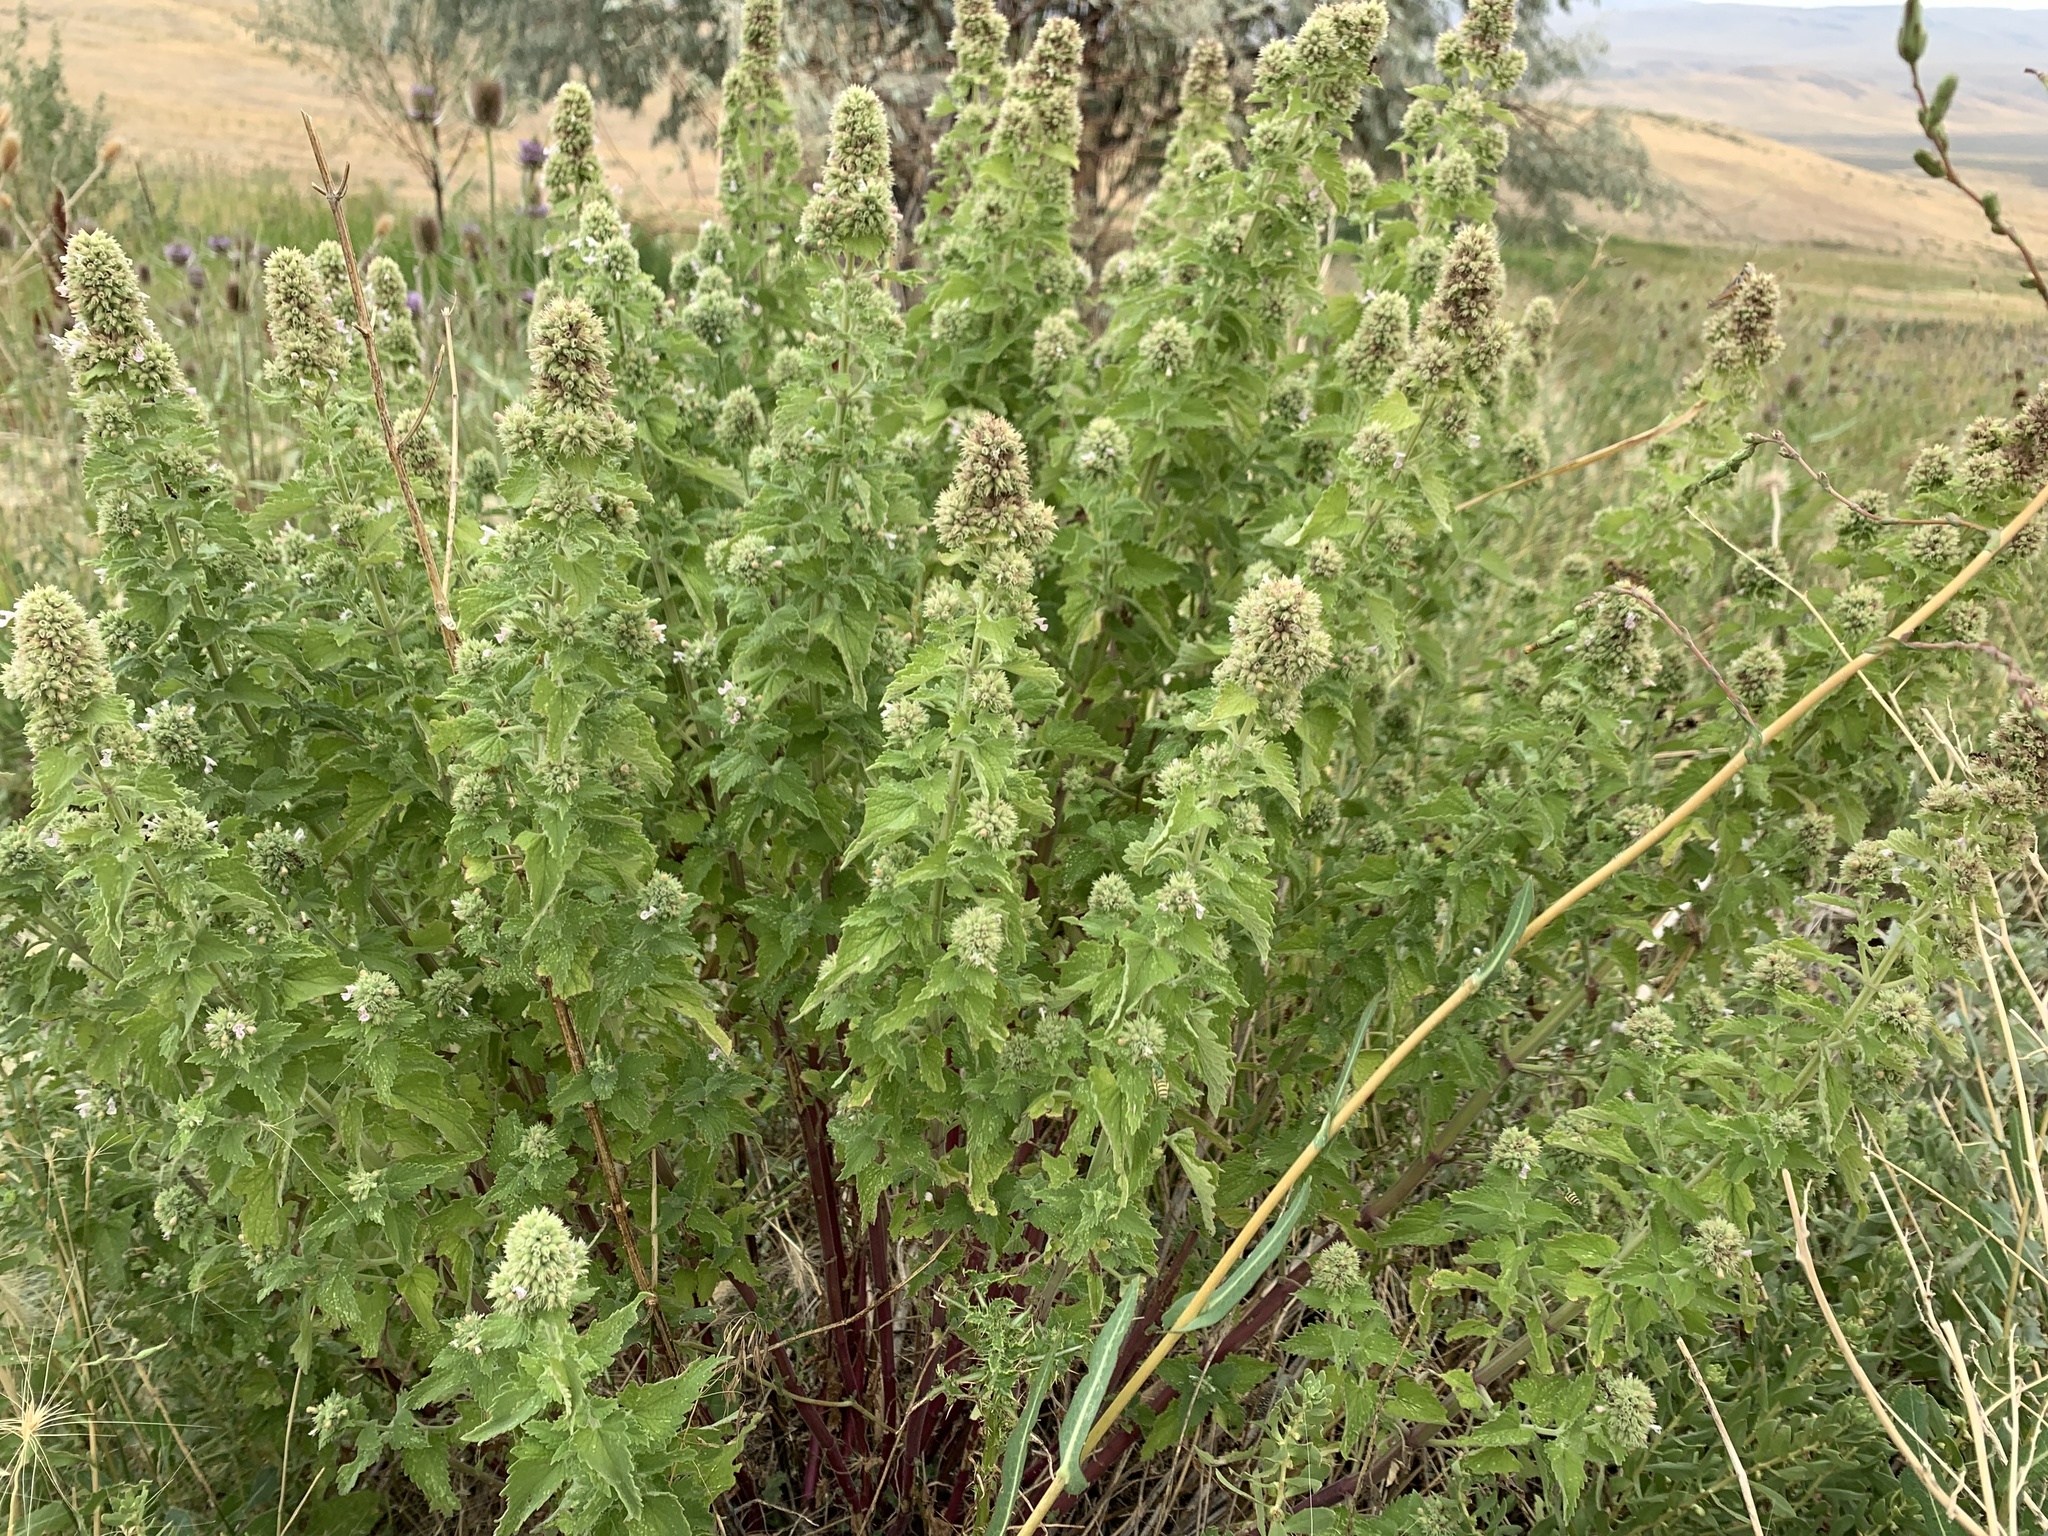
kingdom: Plantae
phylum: Tracheophyta
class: Magnoliopsida
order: Lamiales
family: Lamiaceae
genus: Nepeta
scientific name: Nepeta cataria
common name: Catnip
